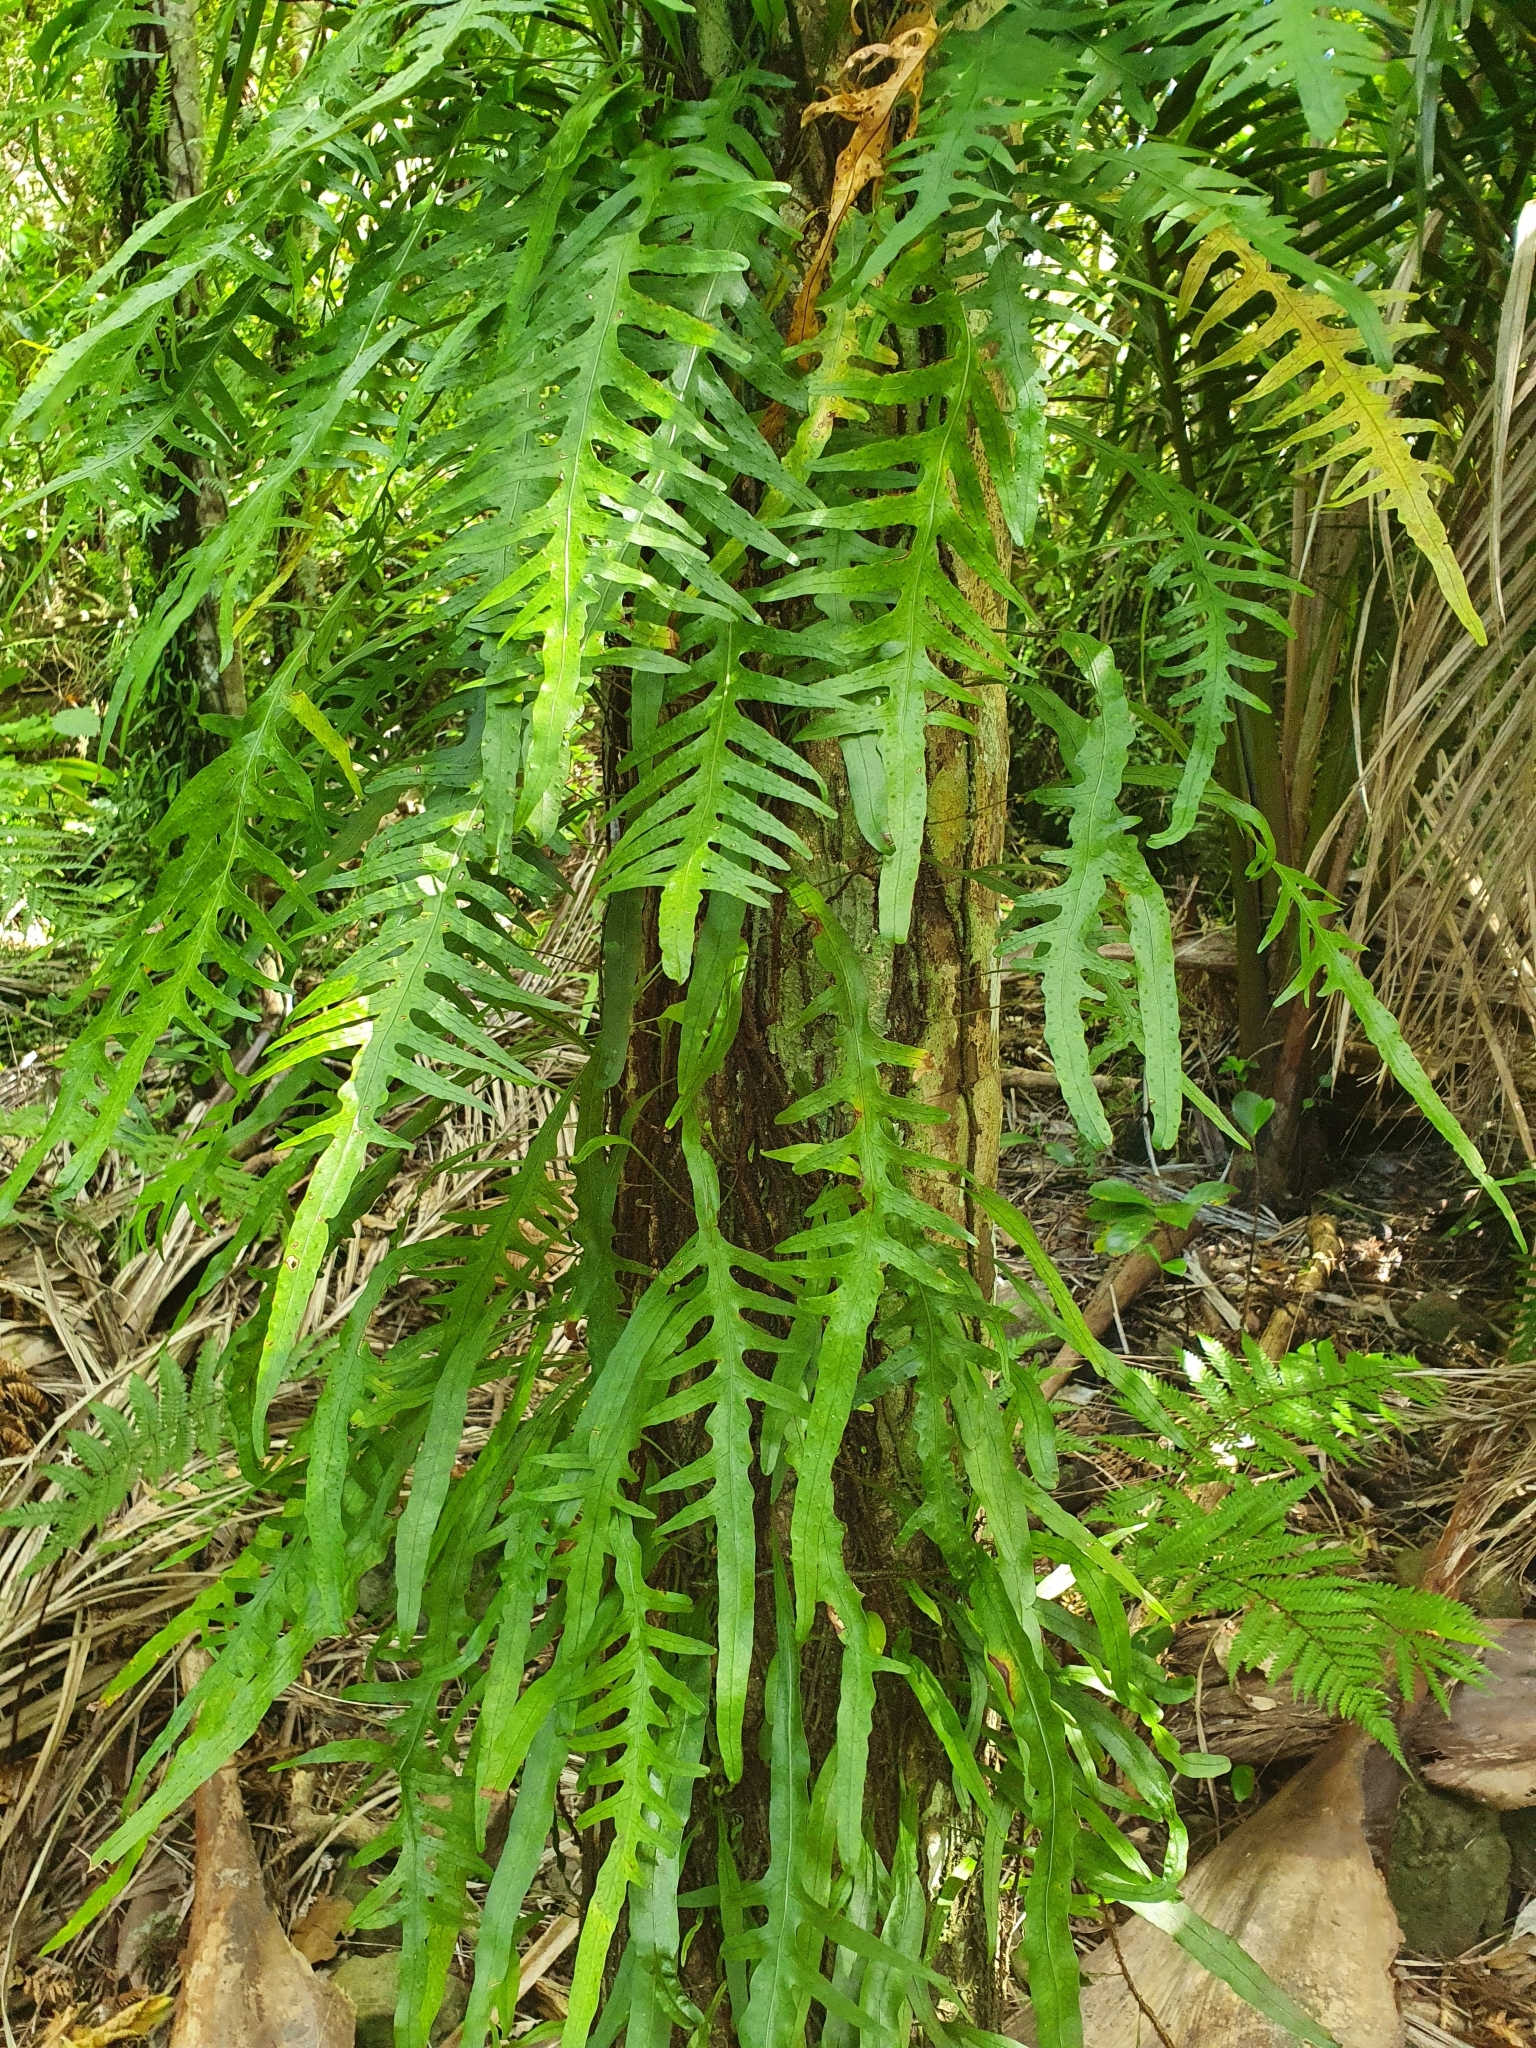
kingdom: Plantae
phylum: Tracheophyta
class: Polypodiopsida
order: Polypodiales
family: Polypodiaceae
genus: Lecanopteris
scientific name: Lecanopteris scandens
